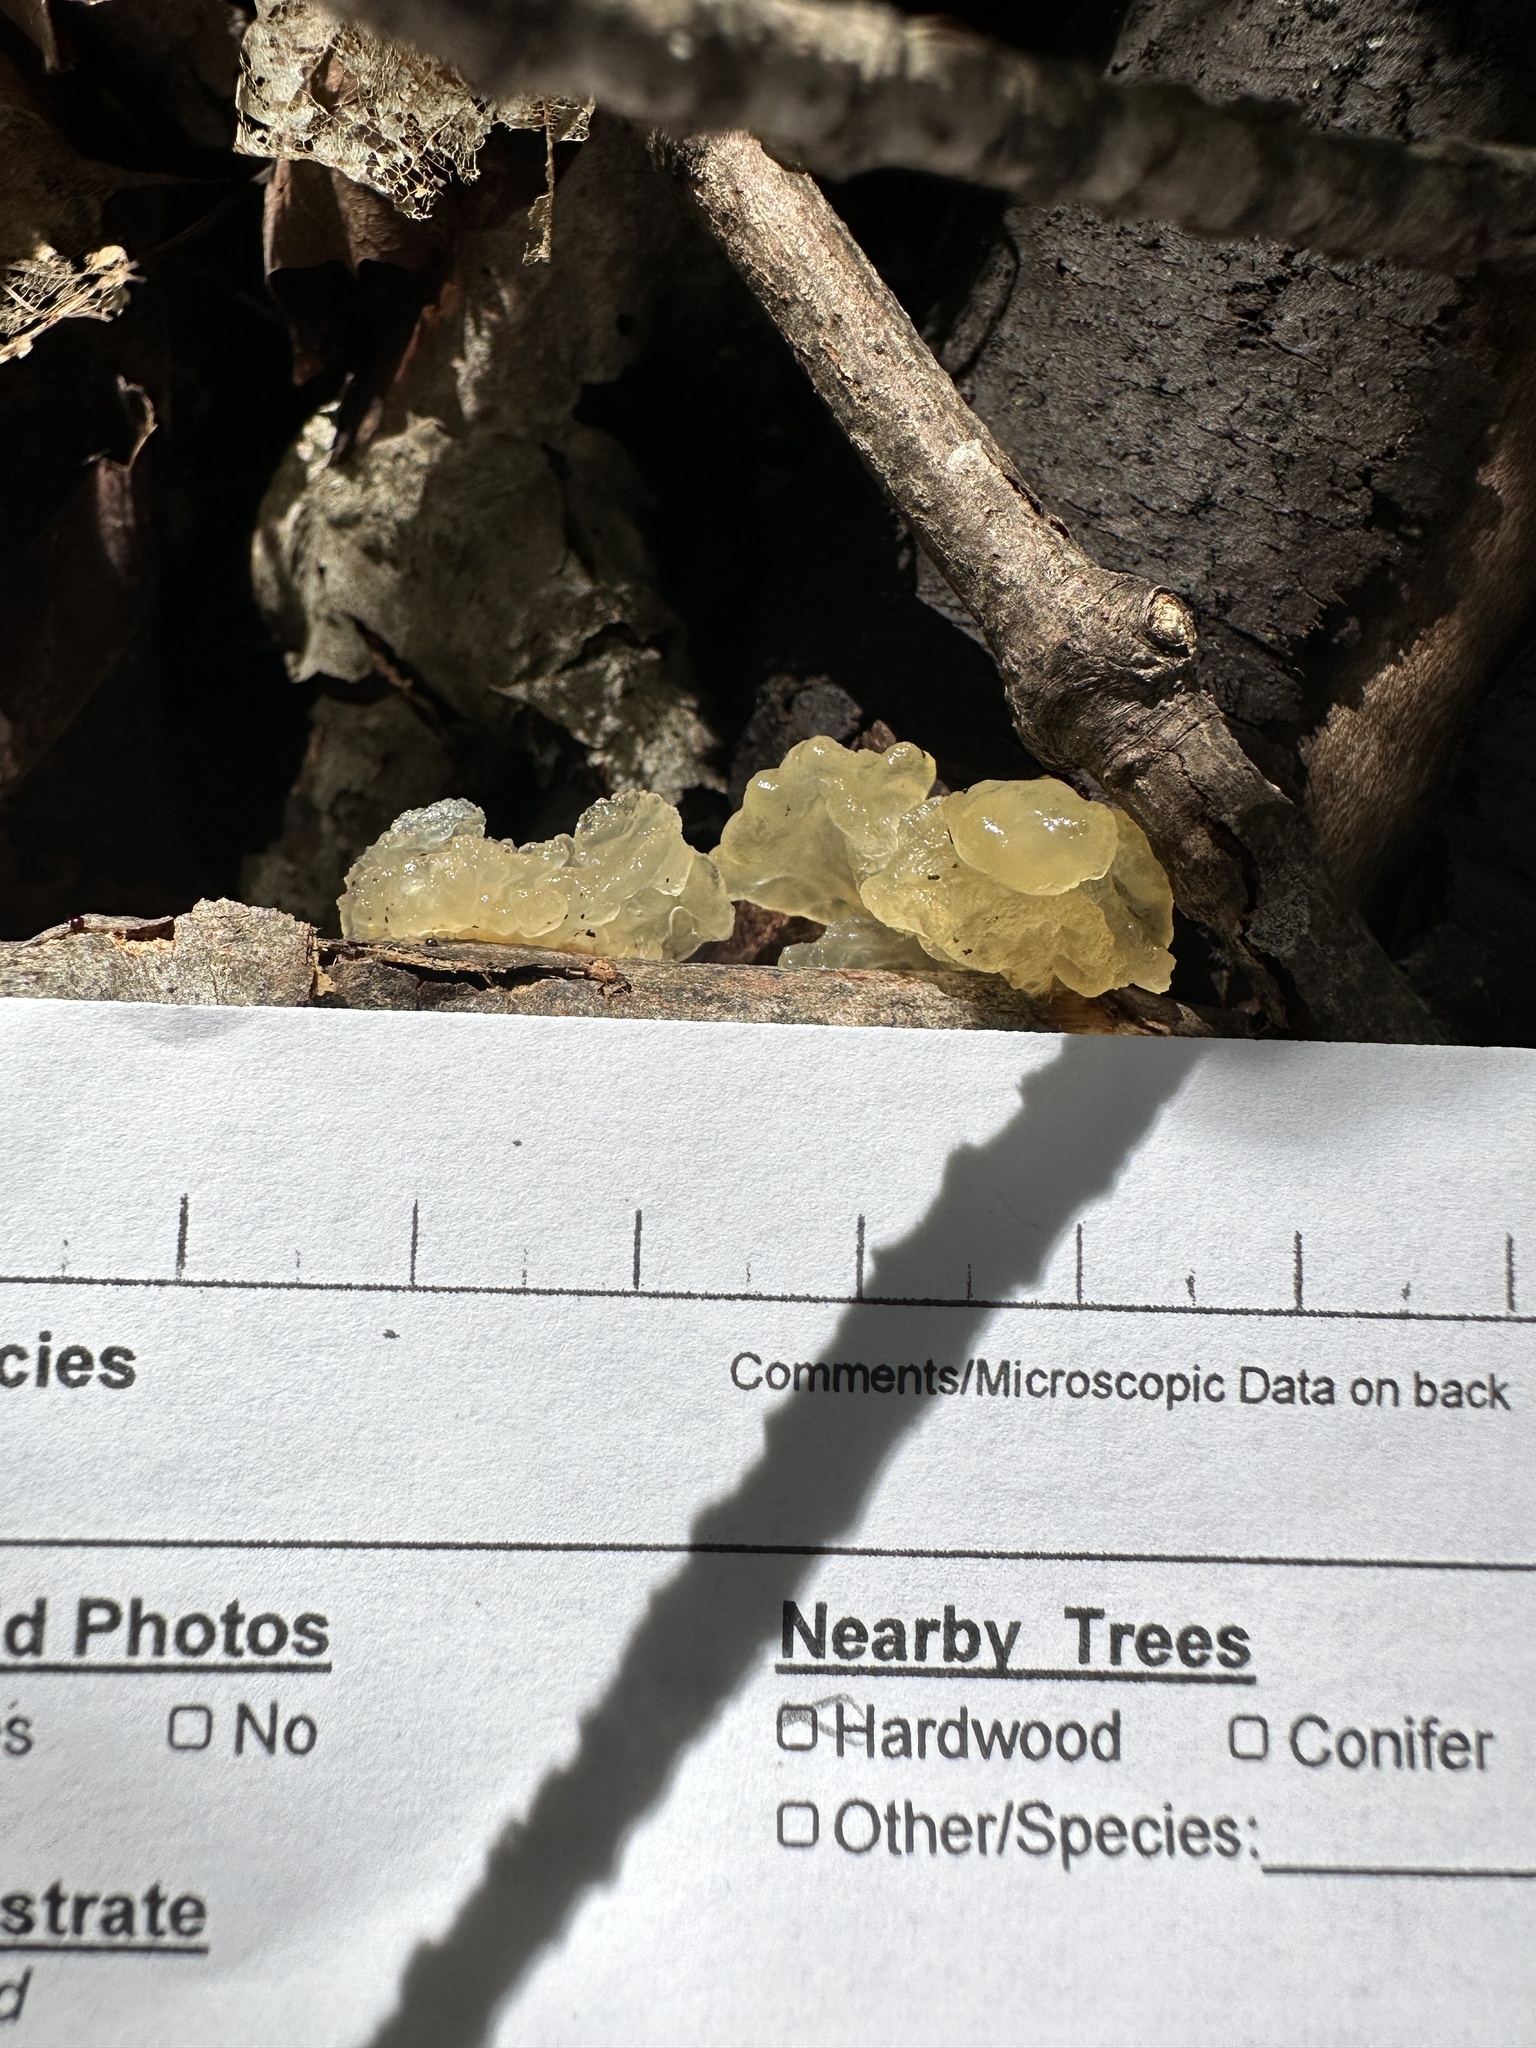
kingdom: Fungi
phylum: Basidiomycota
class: Agaricomycetes
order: Auriculariales
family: Hyaloriaceae
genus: Myxarium
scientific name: Myxarium nucleatum
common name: Crystal brain fungus
